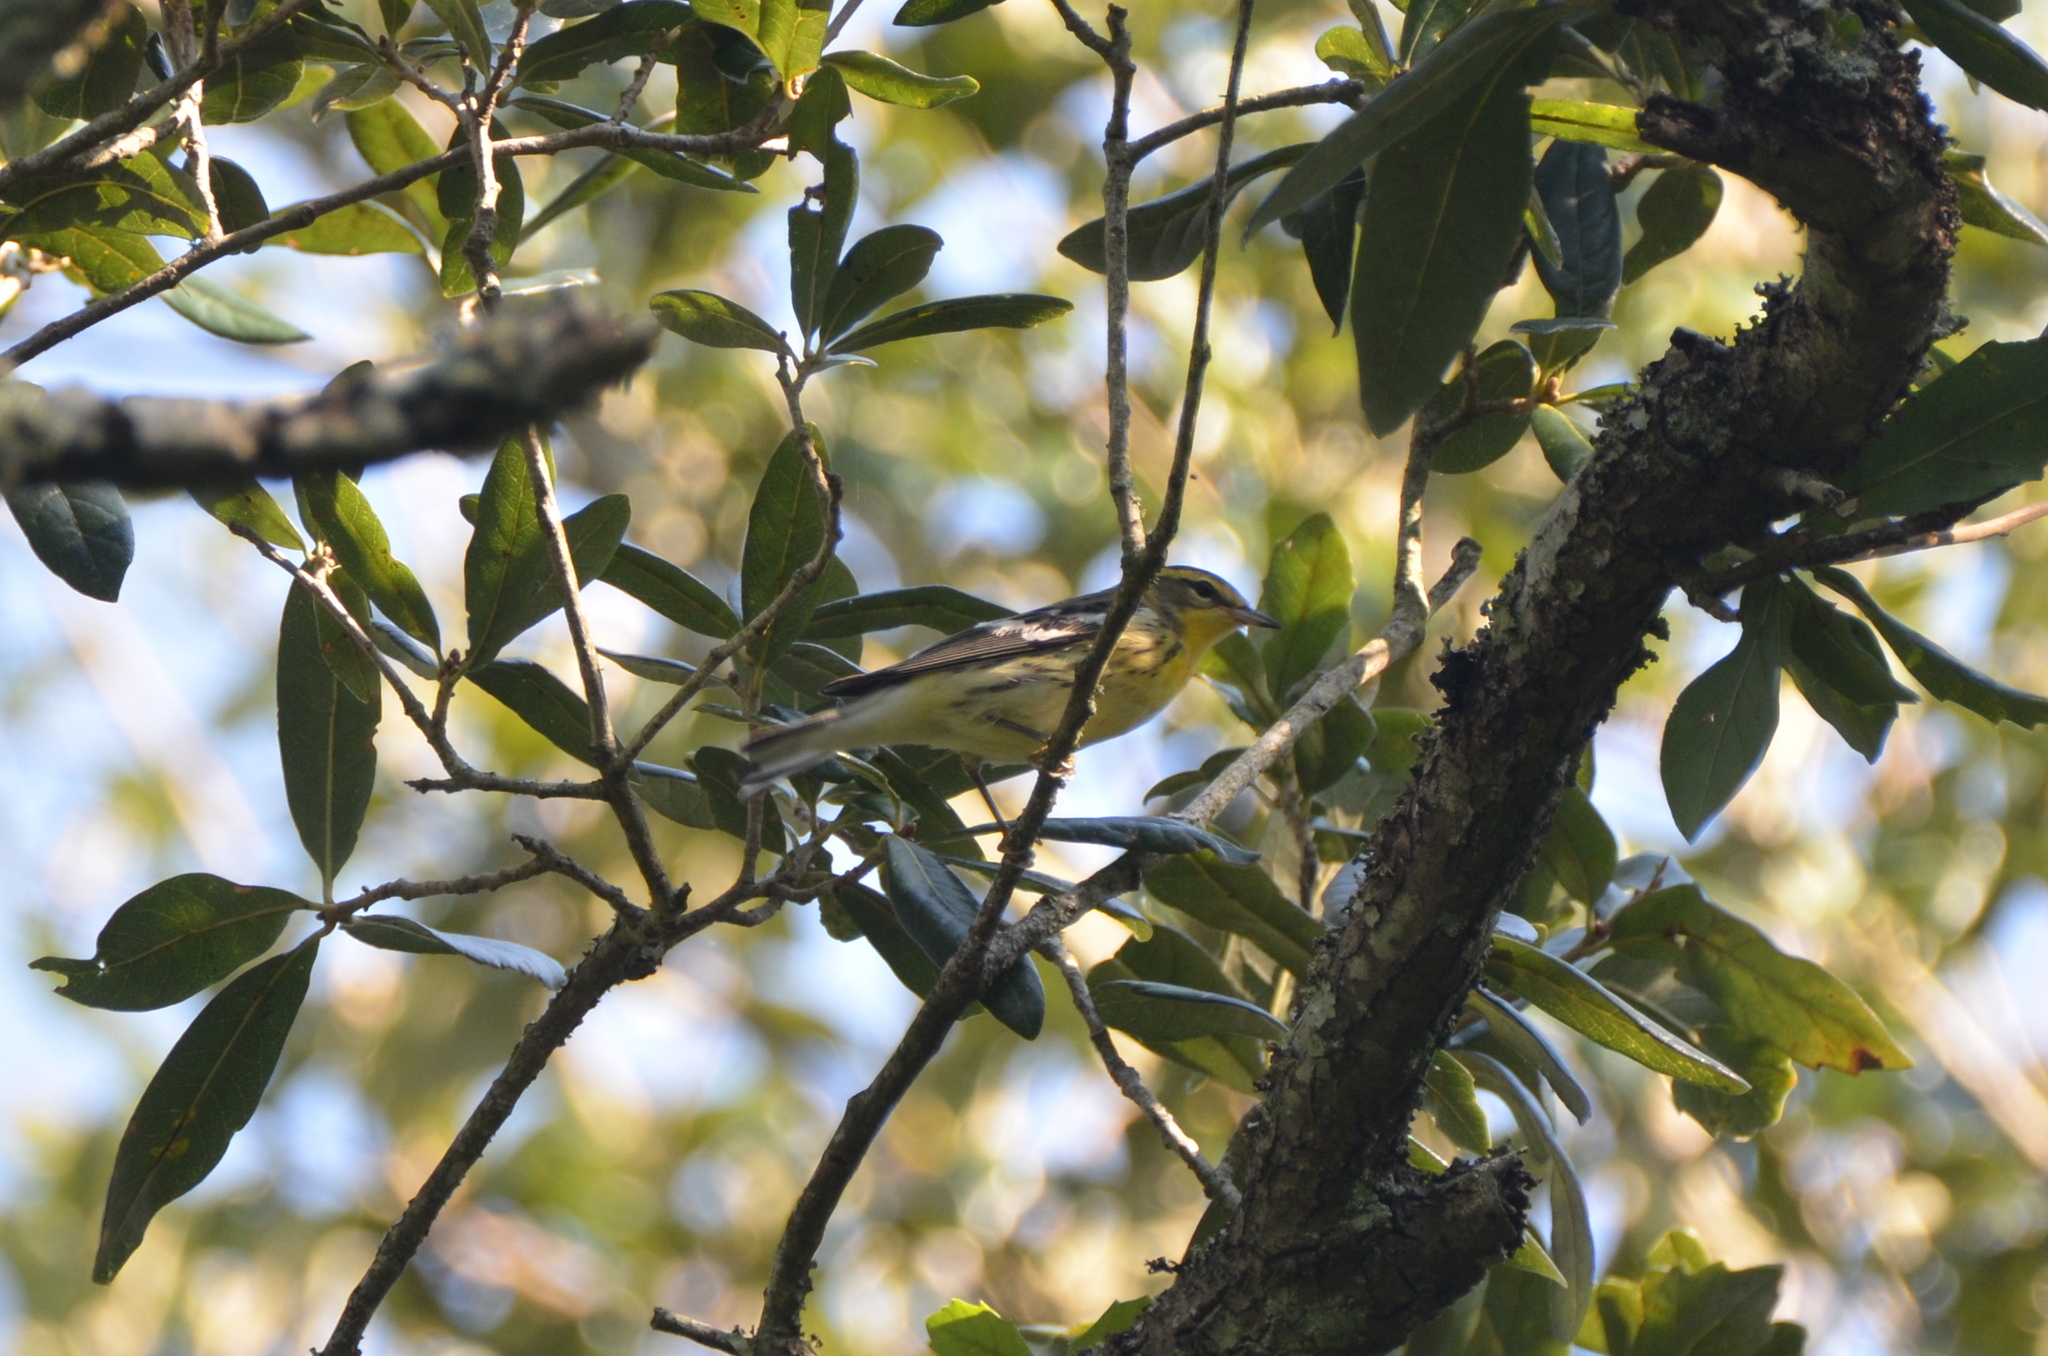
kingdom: Animalia
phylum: Chordata
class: Aves
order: Passeriformes
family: Parulidae
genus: Setophaga
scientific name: Setophaga fusca
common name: Blackburnian warbler
